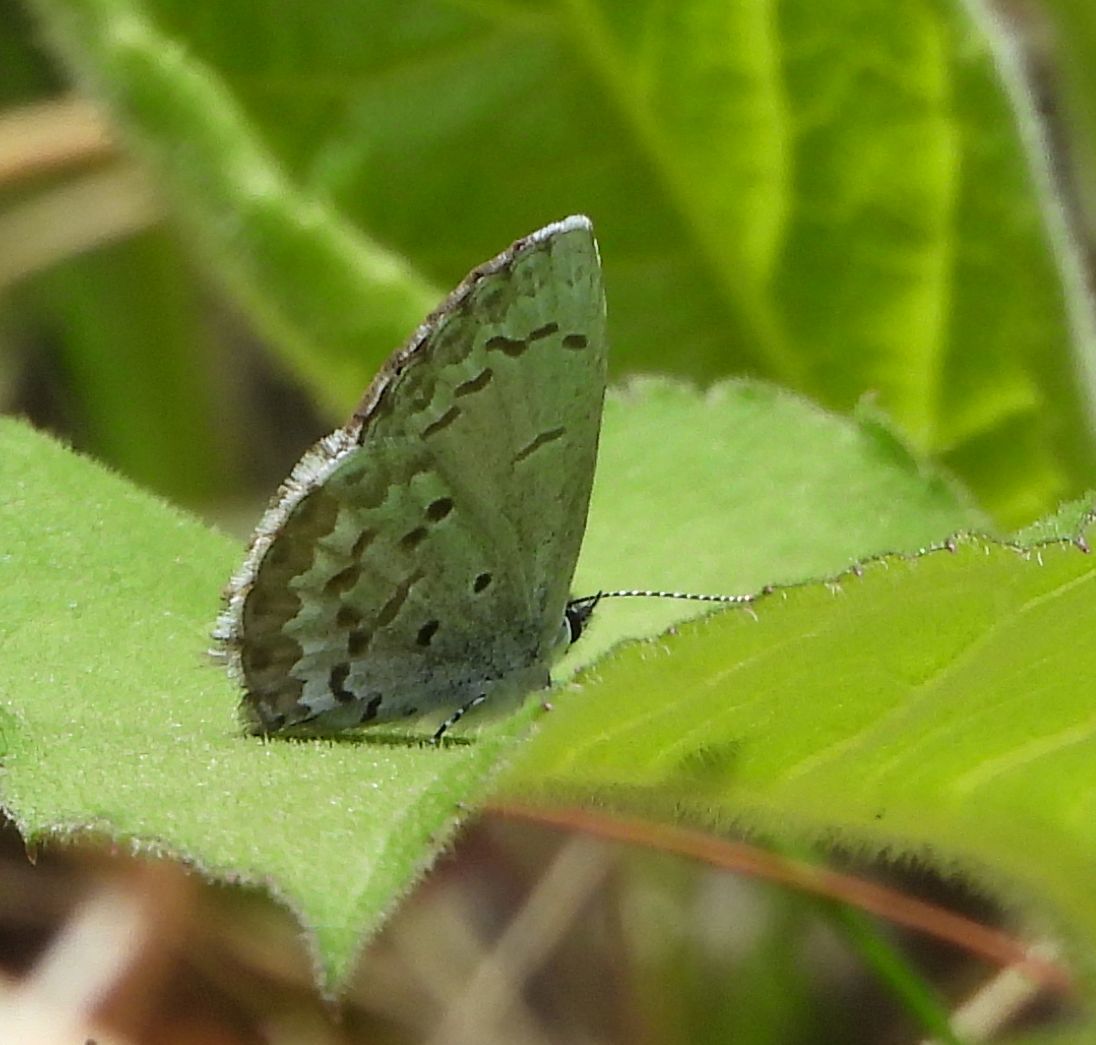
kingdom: Animalia
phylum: Arthropoda
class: Insecta
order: Lepidoptera
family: Lycaenidae
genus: Celastrina
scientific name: Celastrina lucia
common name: Lucia azure
